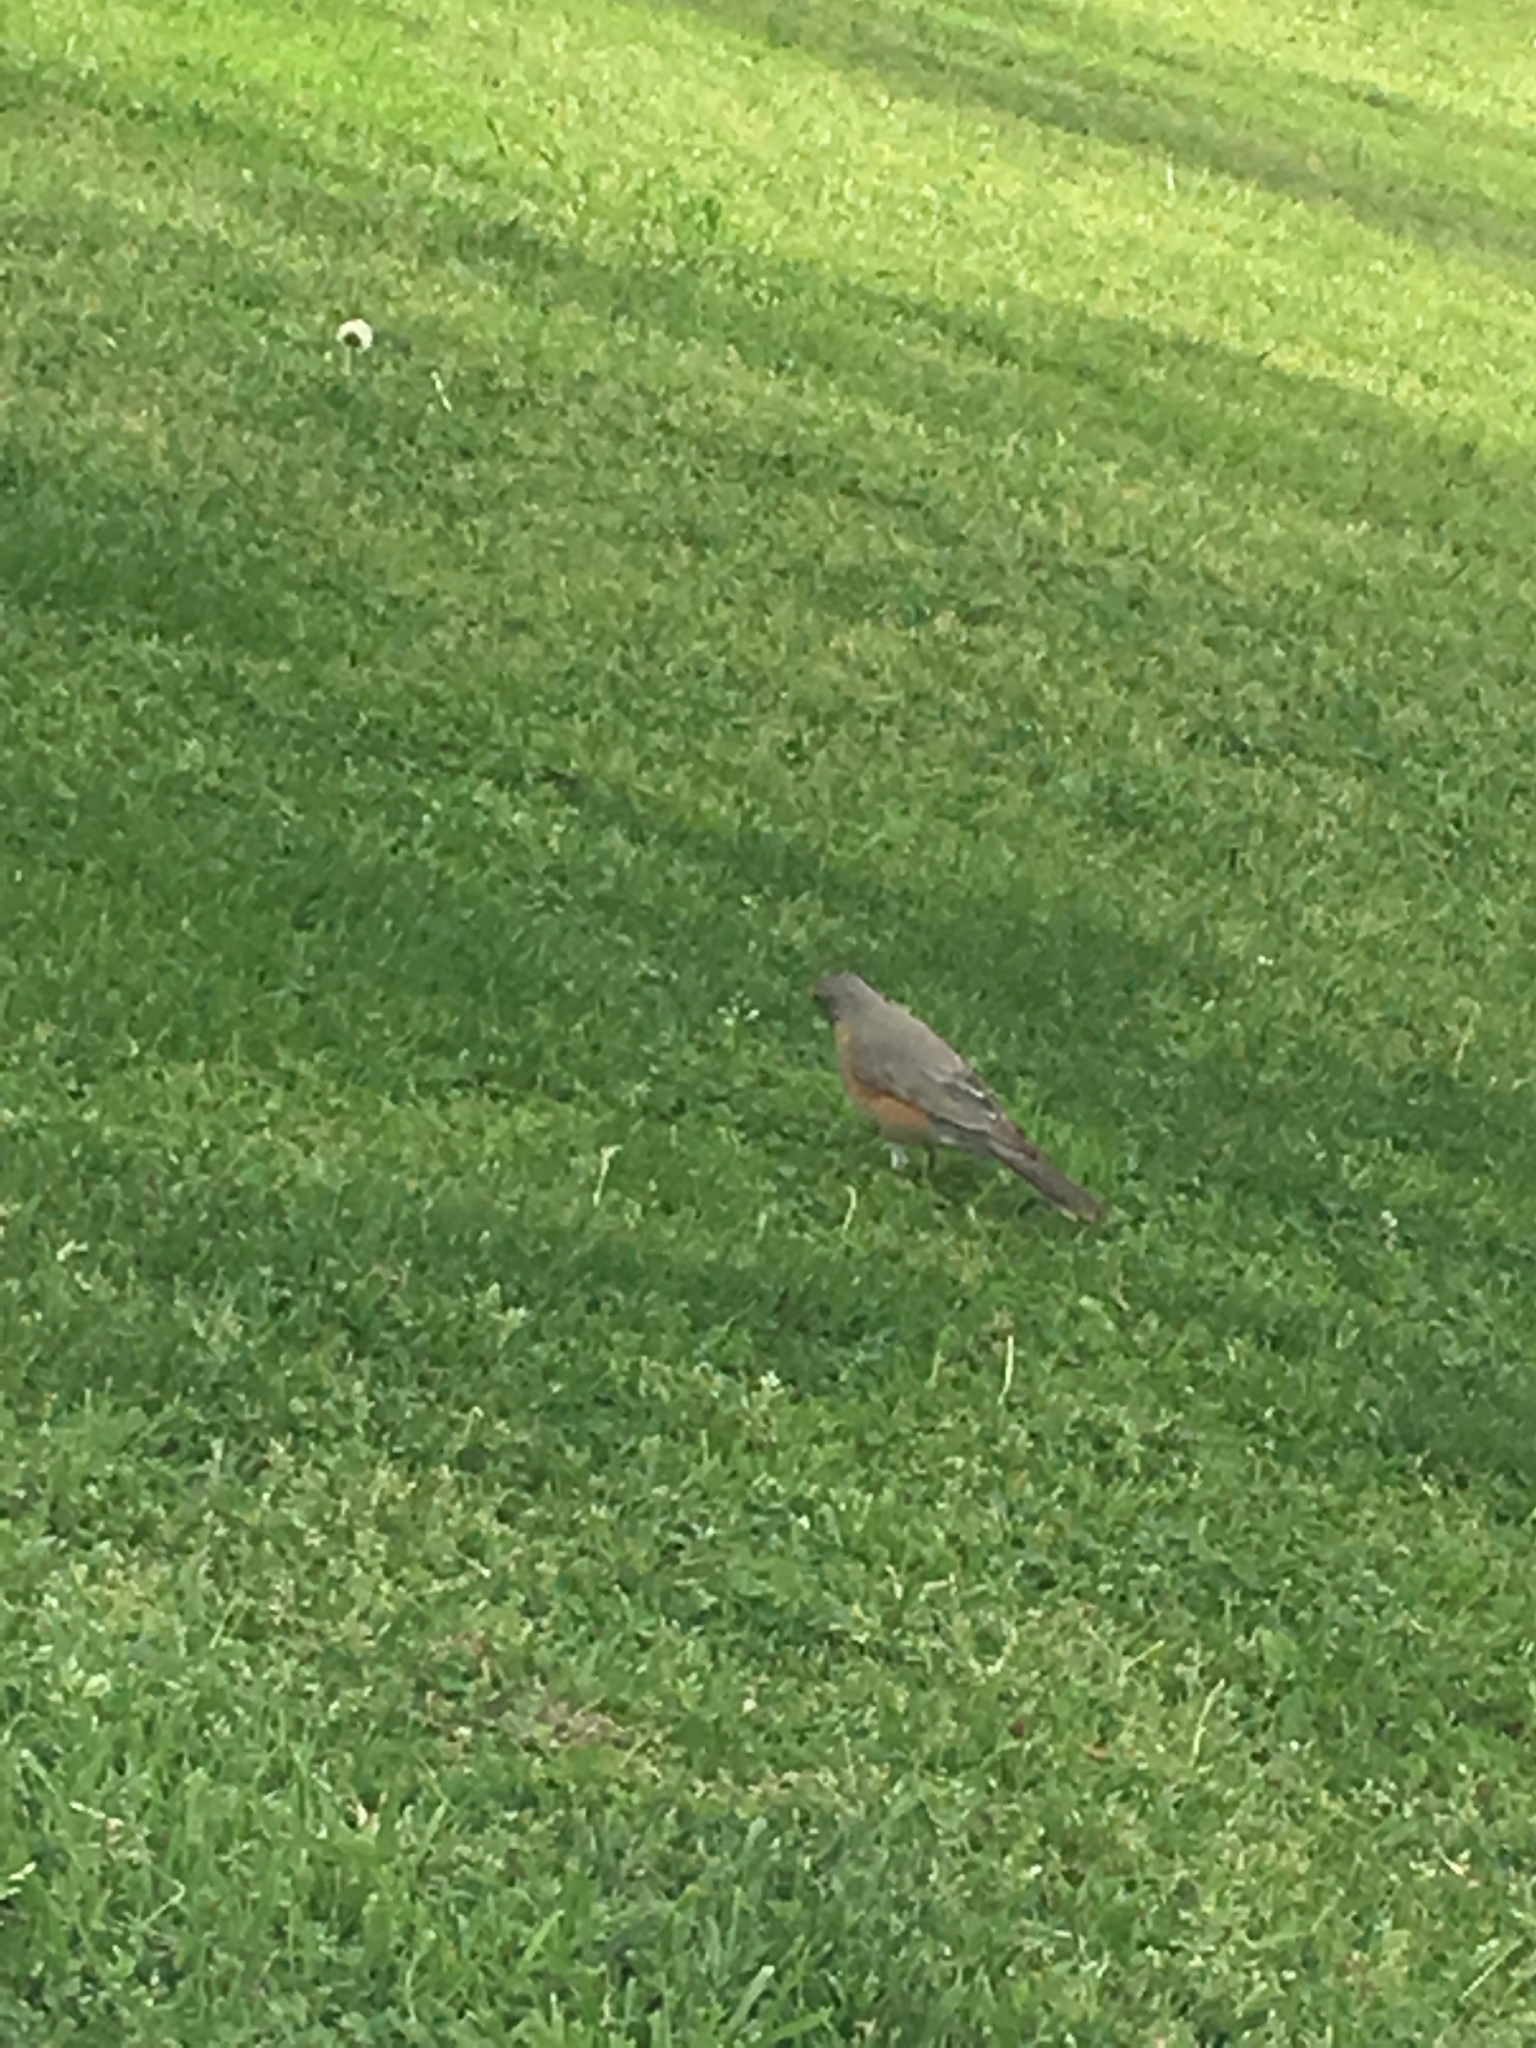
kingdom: Animalia
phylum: Chordata
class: Aves
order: Passeriformes
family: Turdidae
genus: Turdus
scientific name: Turdus migratorius
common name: American robin
